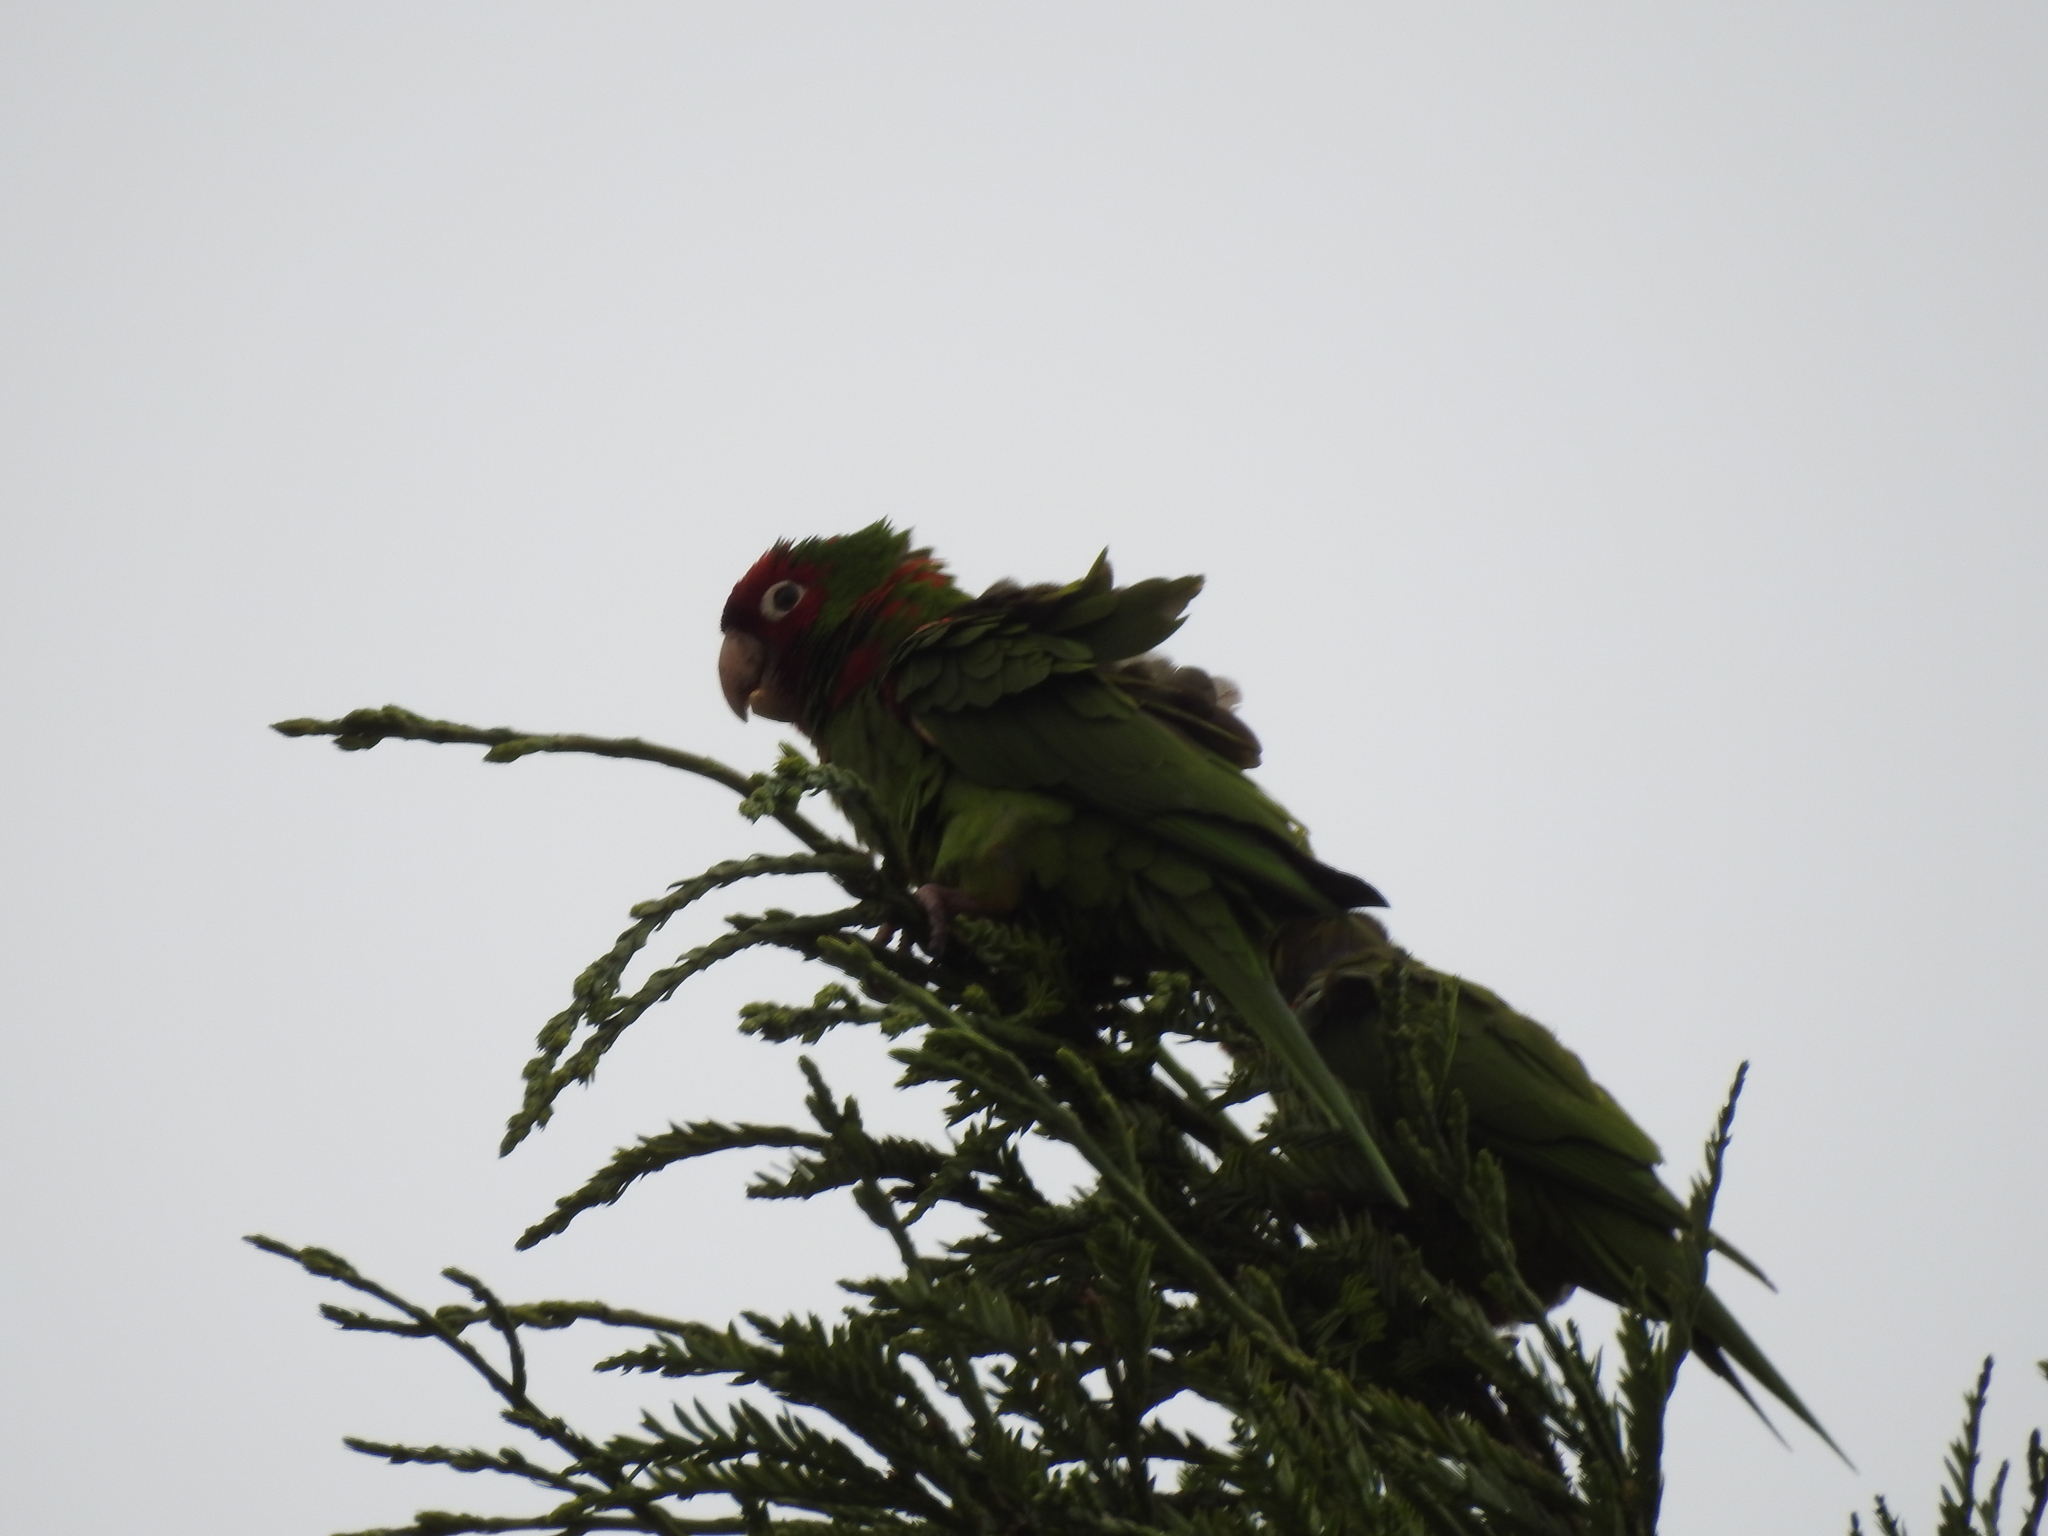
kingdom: Animalia
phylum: Chordata
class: Aves
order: Psittaciformes
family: Psittacidae
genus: Aratinga
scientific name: Aratinga erythrogenys
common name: Red-masked parakeet
